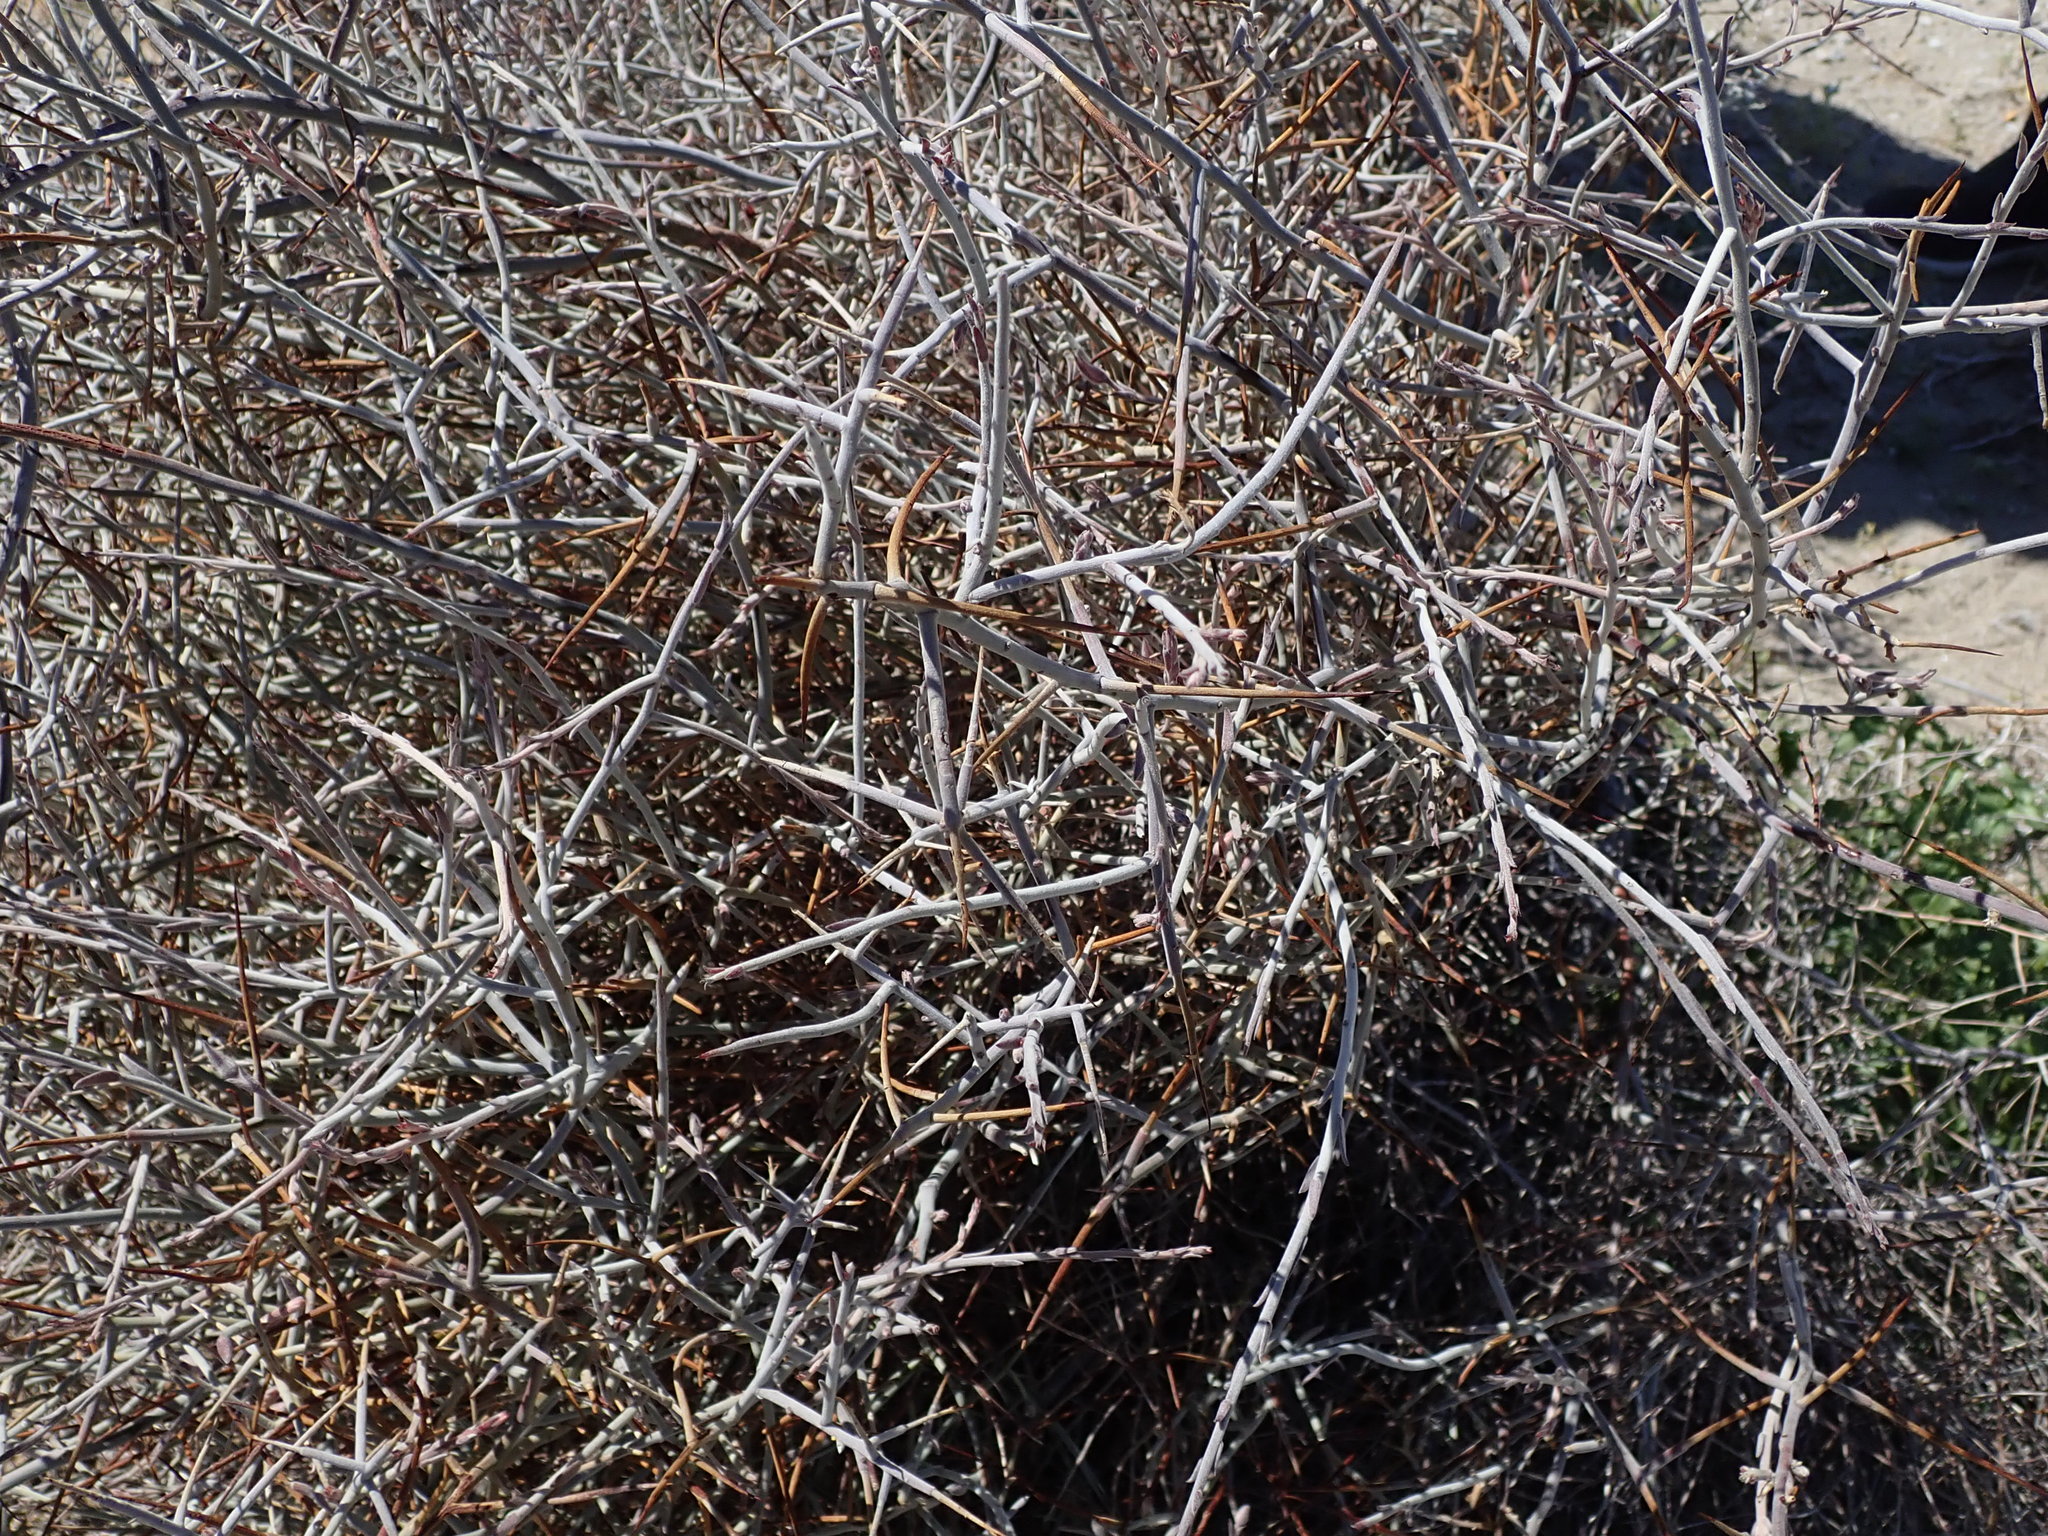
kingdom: Plantae
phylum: Tracheophyta
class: Magnoliopsida
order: Zygophyllales
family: Krameriaceae
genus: Krameria
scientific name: Krameria bicolor
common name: White ratany
